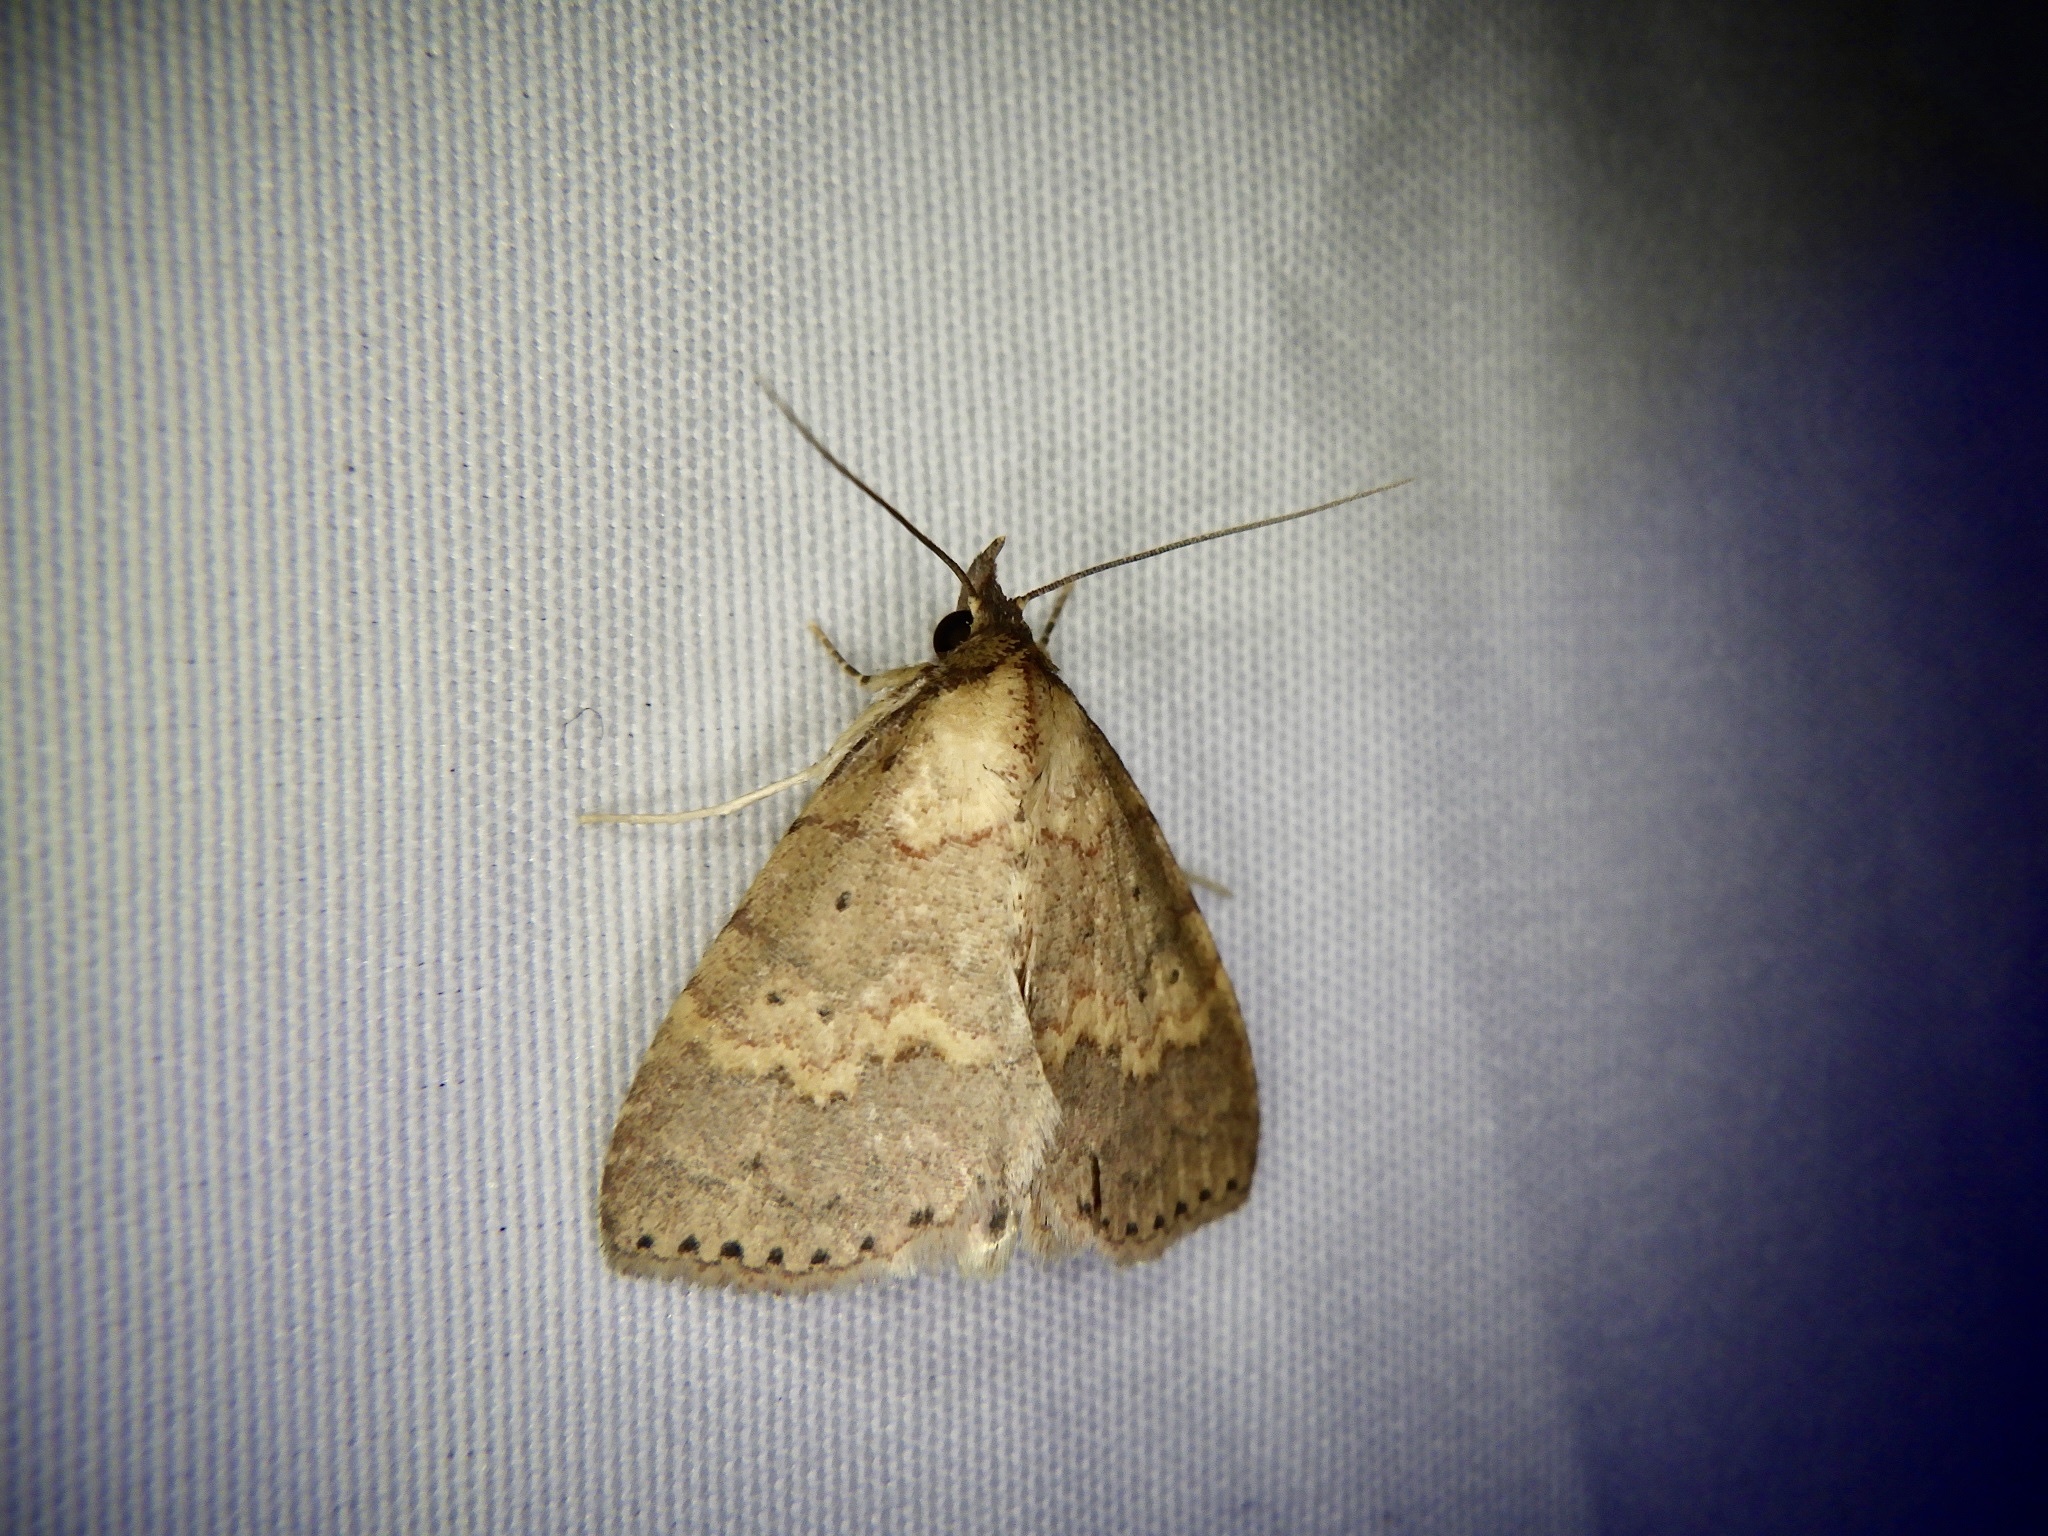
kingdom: Animalia
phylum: Arthropoda
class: Insecta
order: Lepidoptera
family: Erebidae
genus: Dunira
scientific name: Dunira fasciata
